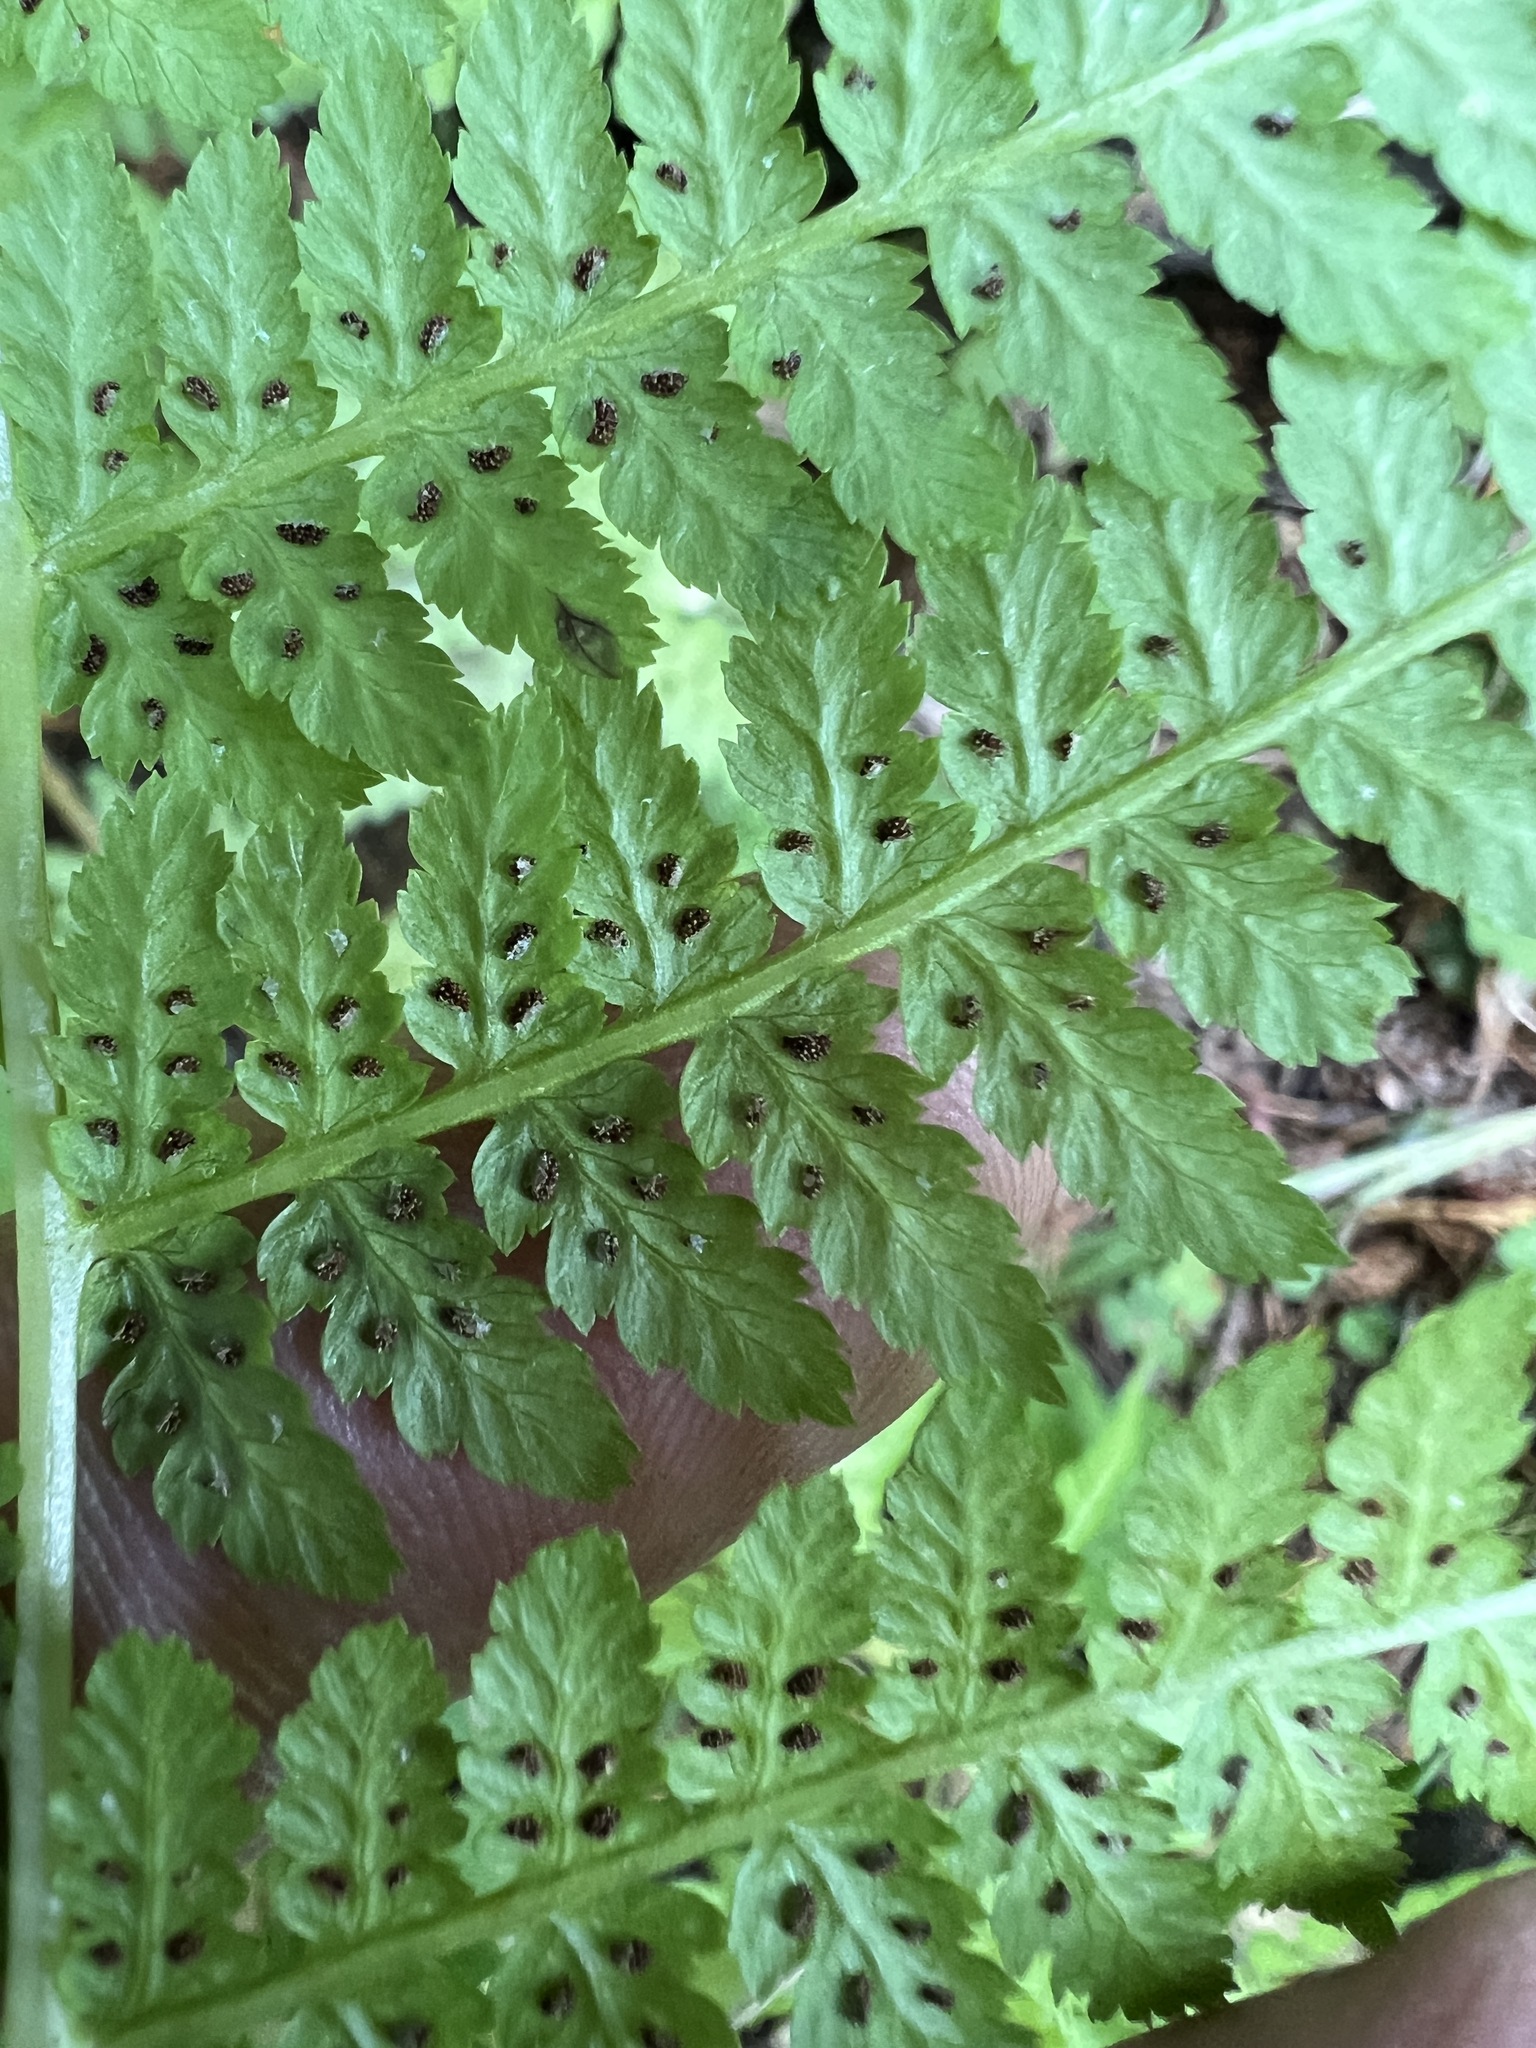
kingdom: Plantae
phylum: Tracheophyta
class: Polypodiopsida
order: Polypodiales
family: Athyriaceae
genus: Athyrium
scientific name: Athyrium filix-femina
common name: Lady fern
